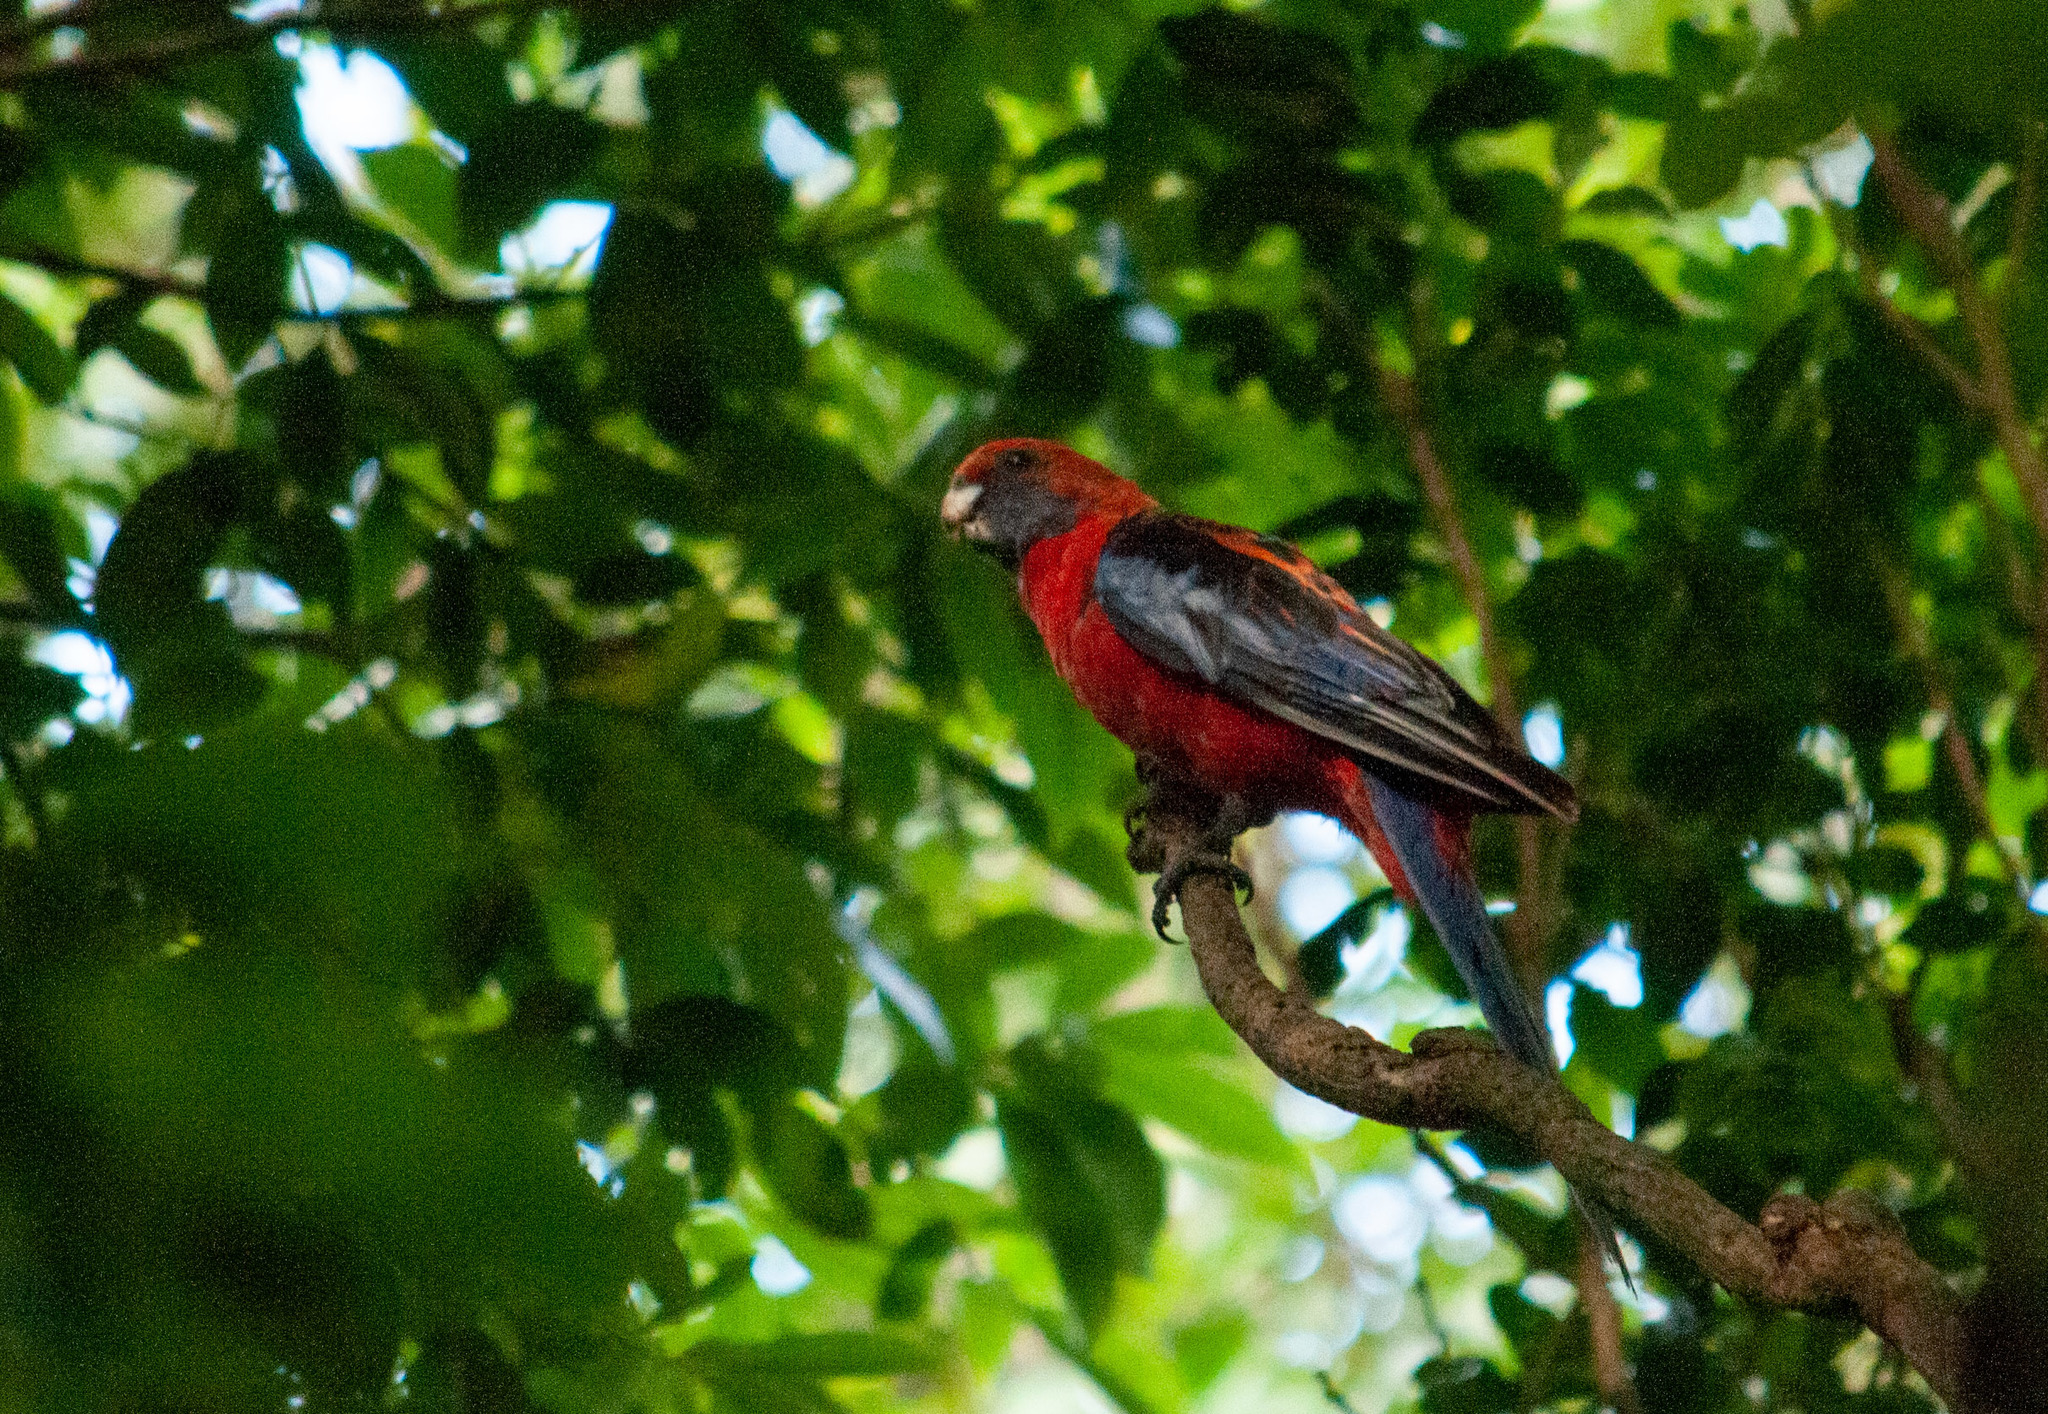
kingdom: Animalia
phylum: Chordata
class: Aves
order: Psittaciformes
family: Psittacidae
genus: Platycercus
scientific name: Platycercus elegans
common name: Crimson rosella
